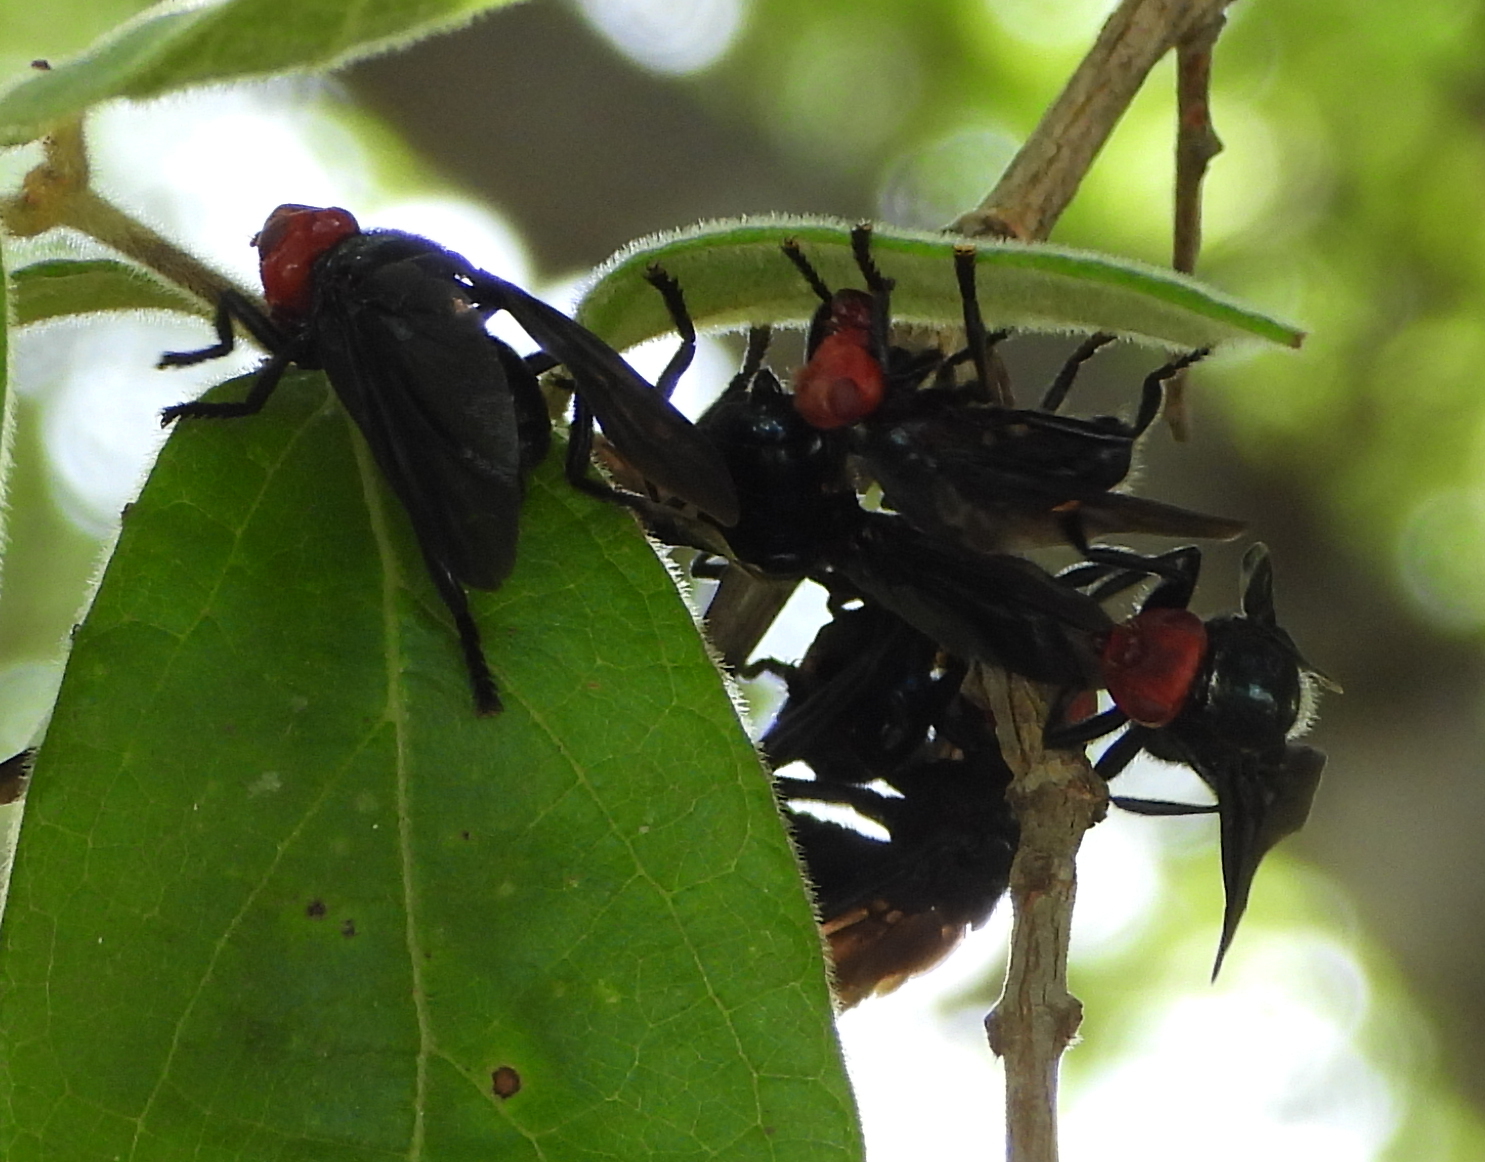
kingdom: Animalia
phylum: Arthropoda
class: Insecta
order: Diptera
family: Platystomatidae
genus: Bromophila
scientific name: Bromophila caffra
